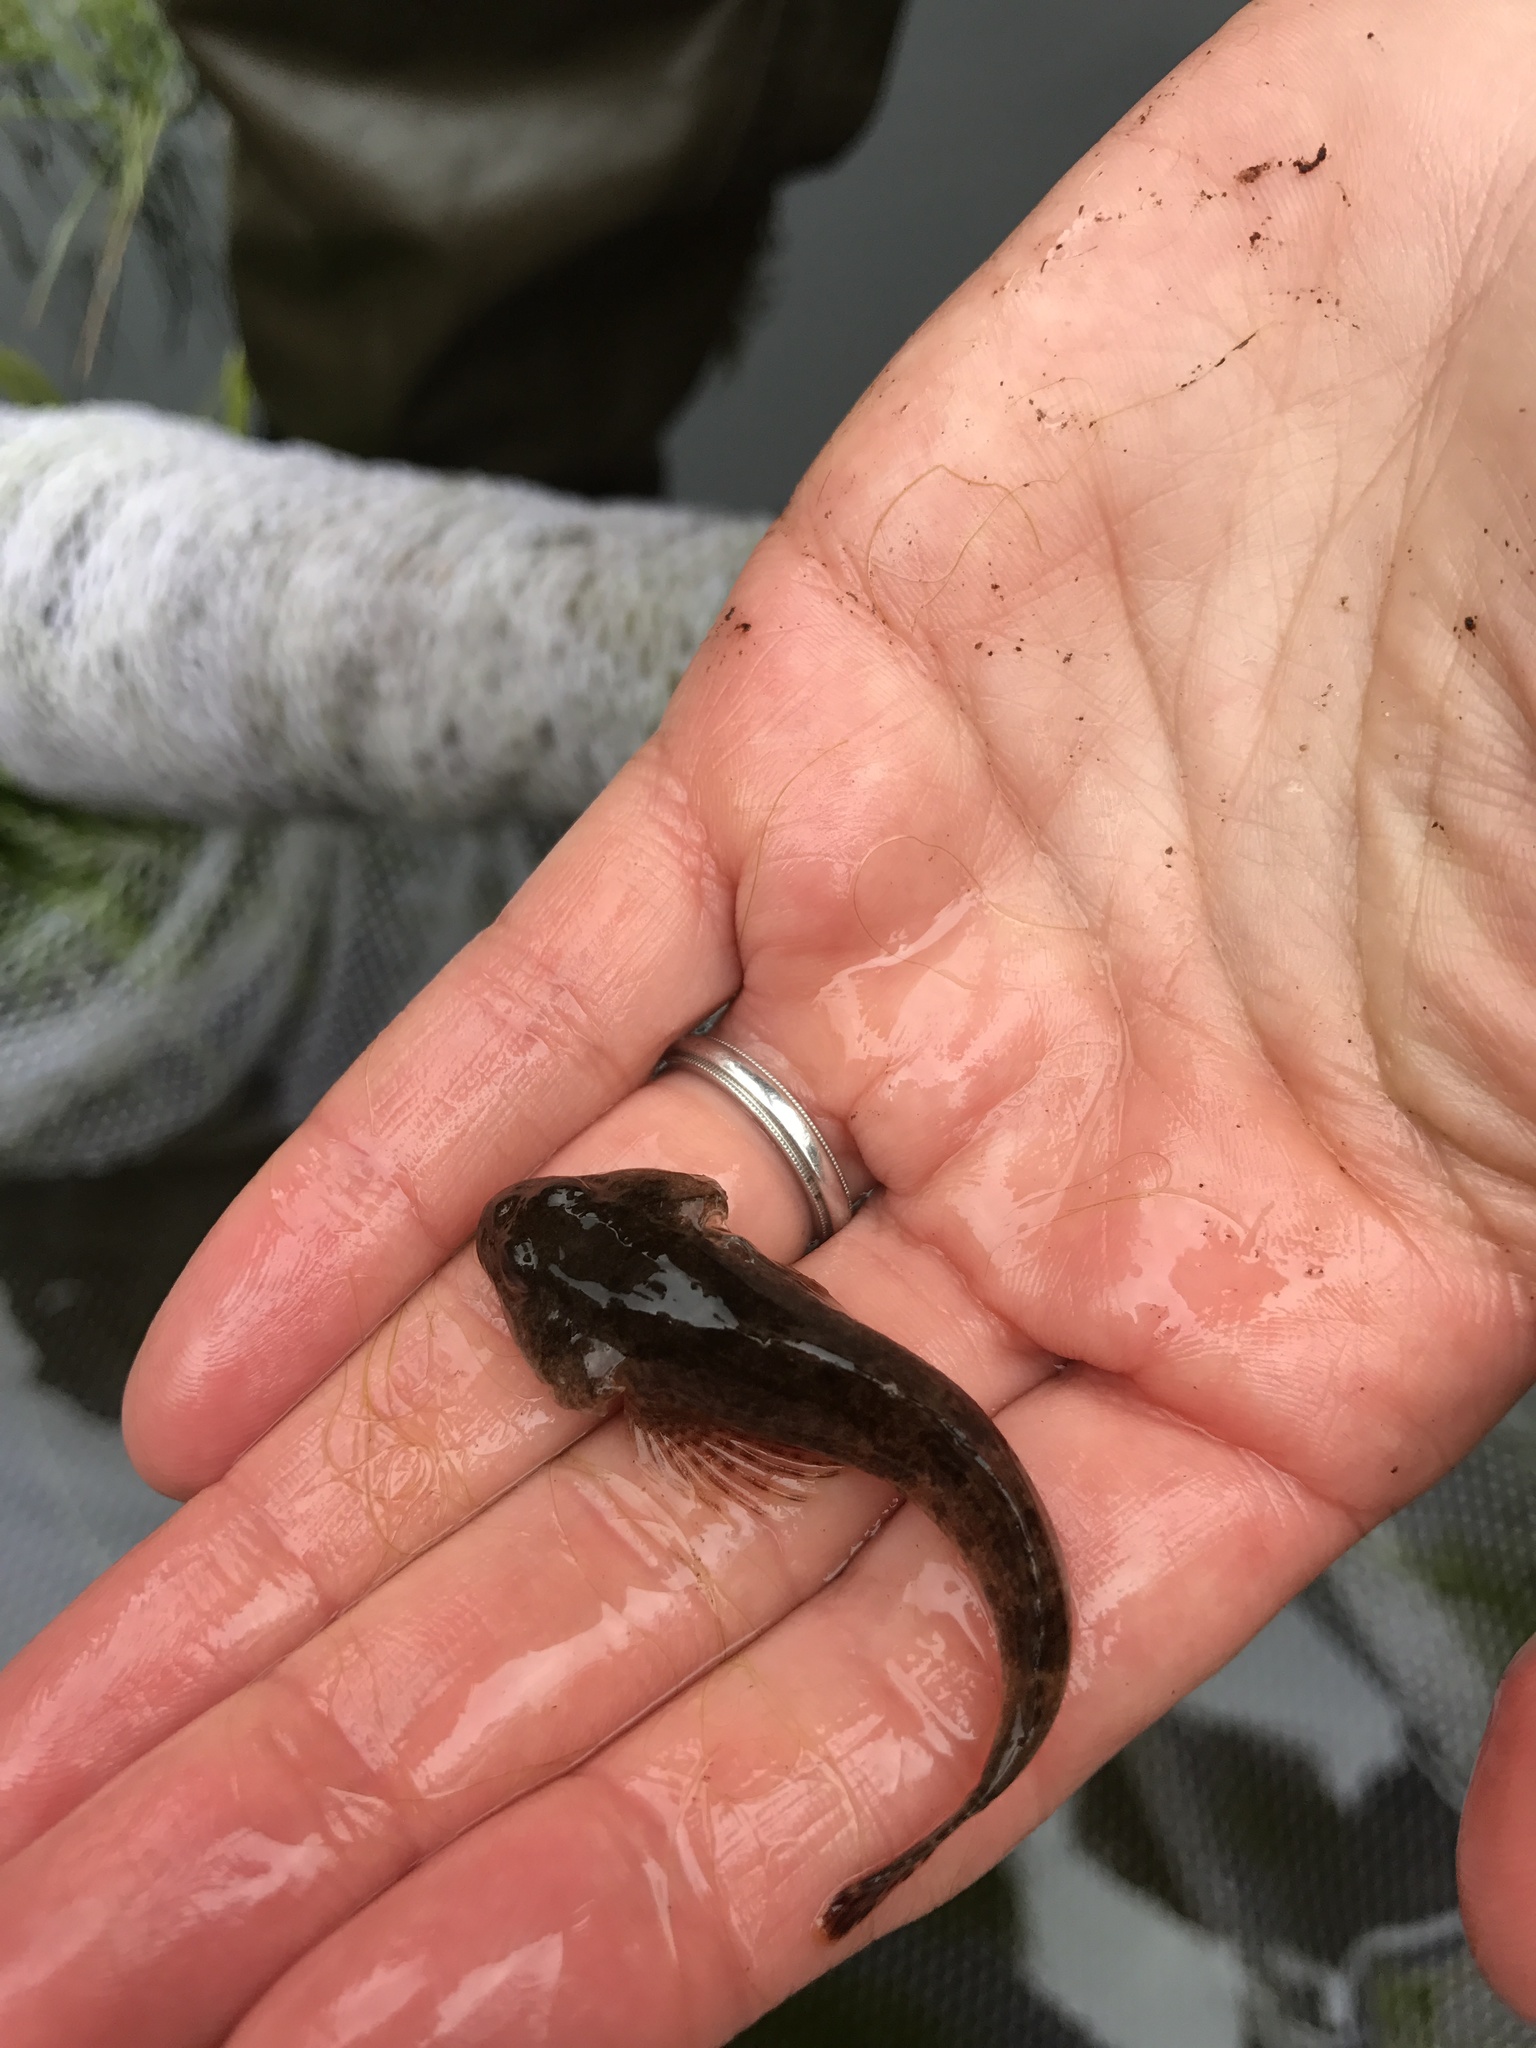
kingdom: Animalia
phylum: Chordata
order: Scorpaeniformes
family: Cottidae
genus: Cottus
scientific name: Cottus cognatus
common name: Slimy sculpin
